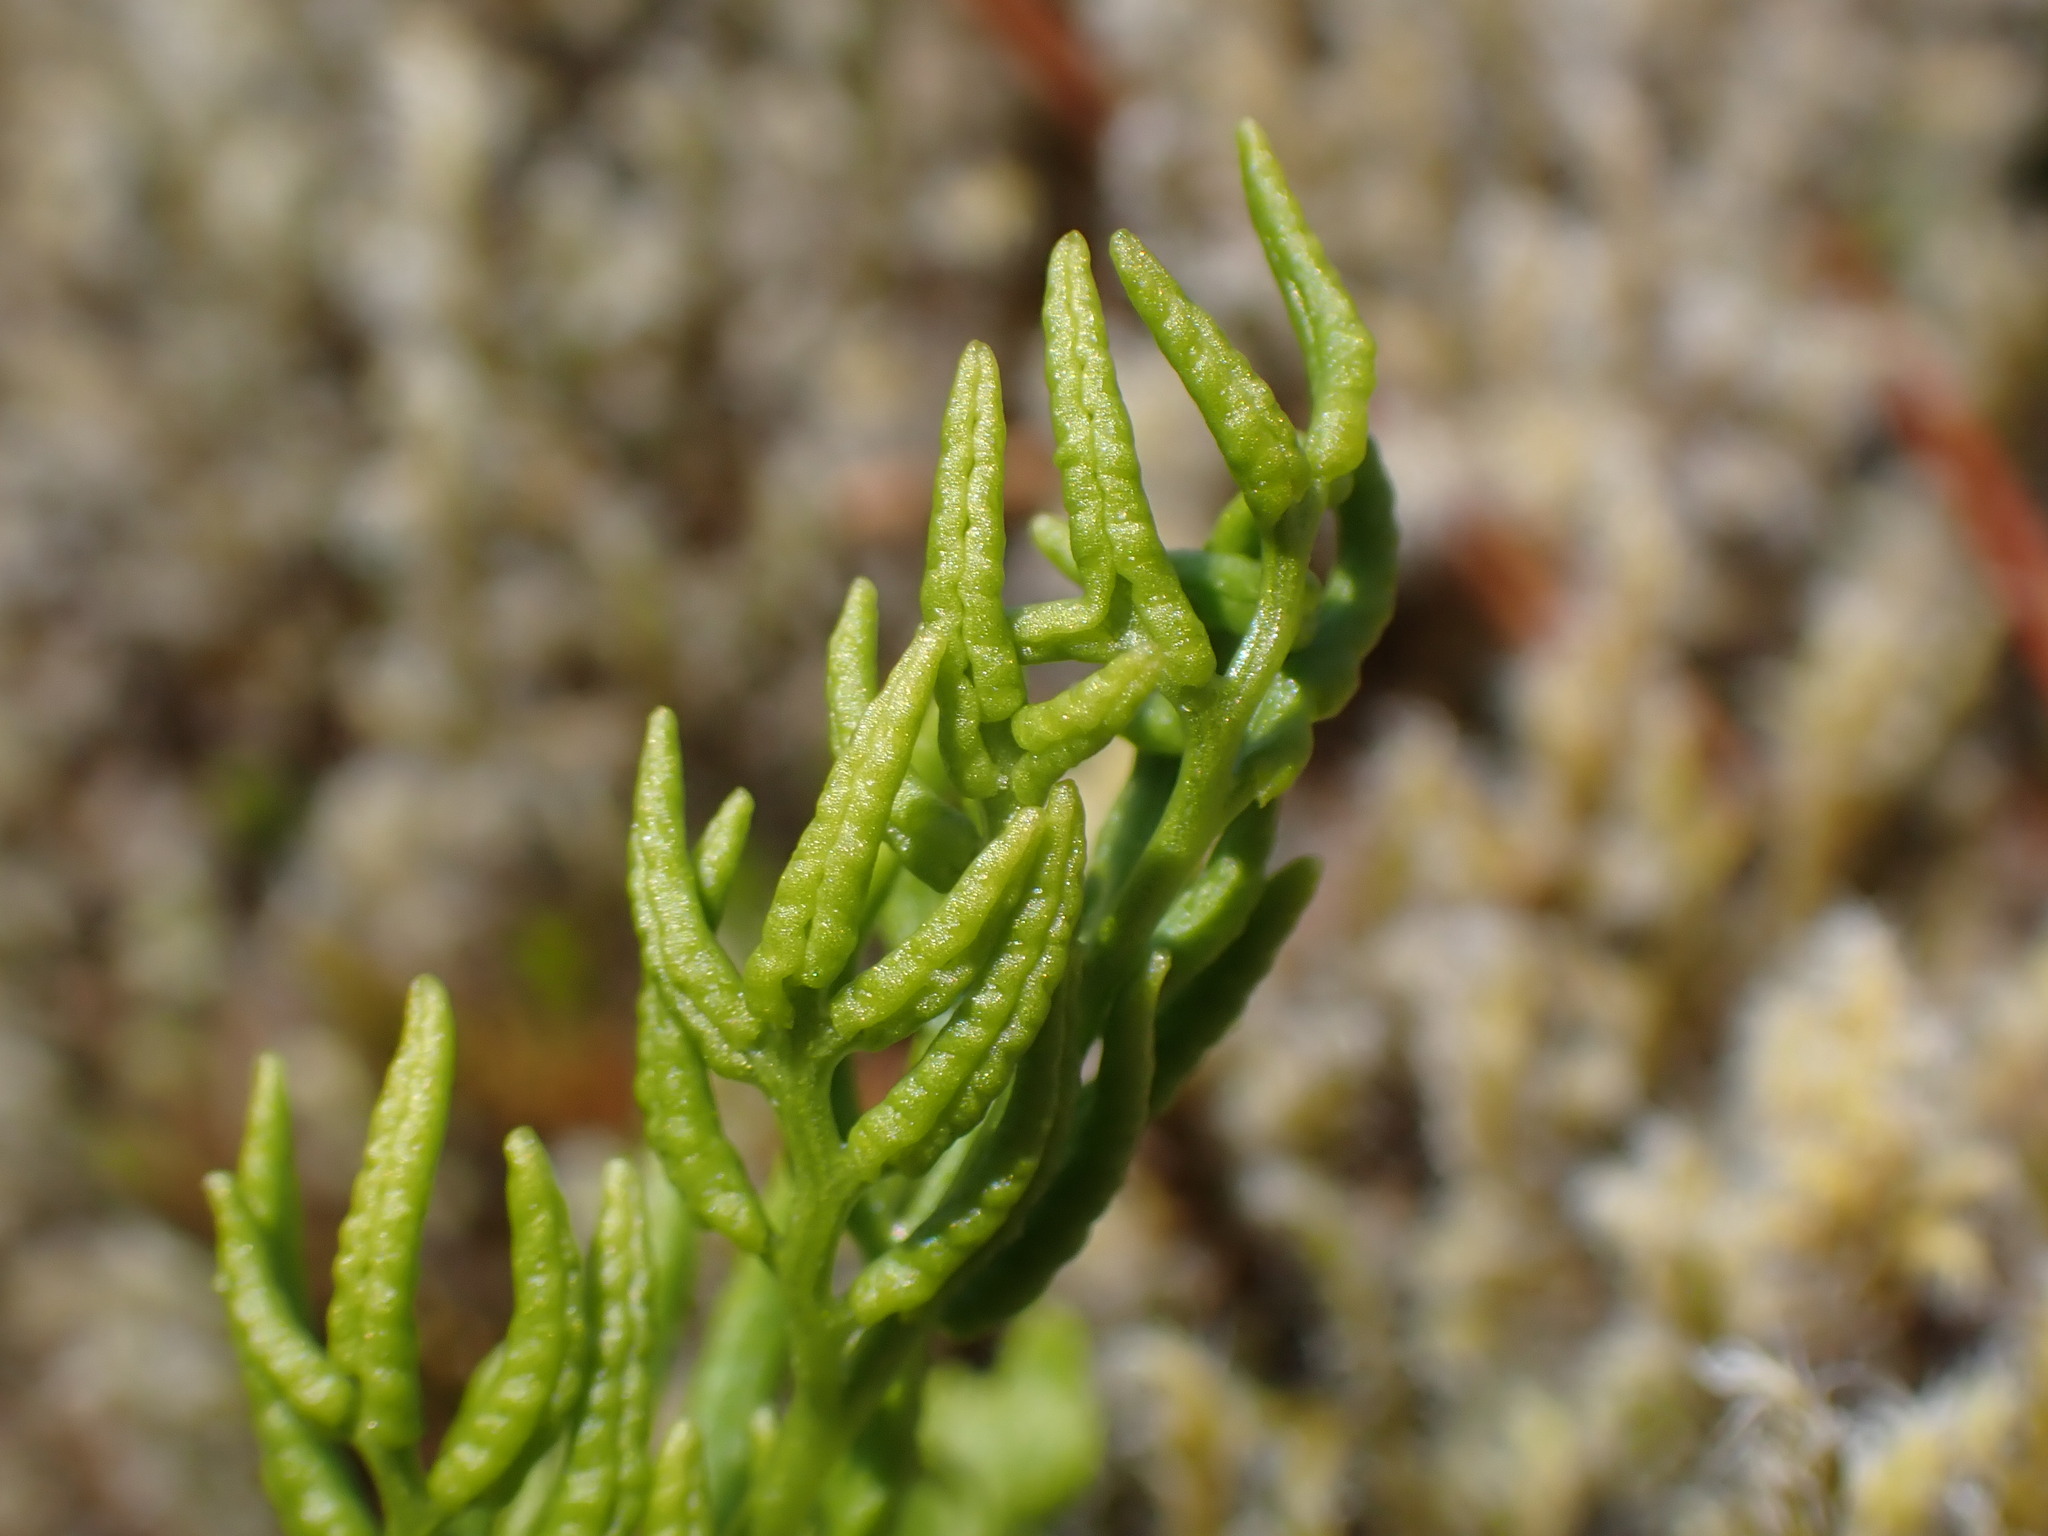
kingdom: Plantae
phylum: Tracheophyta
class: Polypodiopsida
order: Polypodiales
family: Pteridaceae
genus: Cryptogramma
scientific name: Cryptogramma acrostichoides
